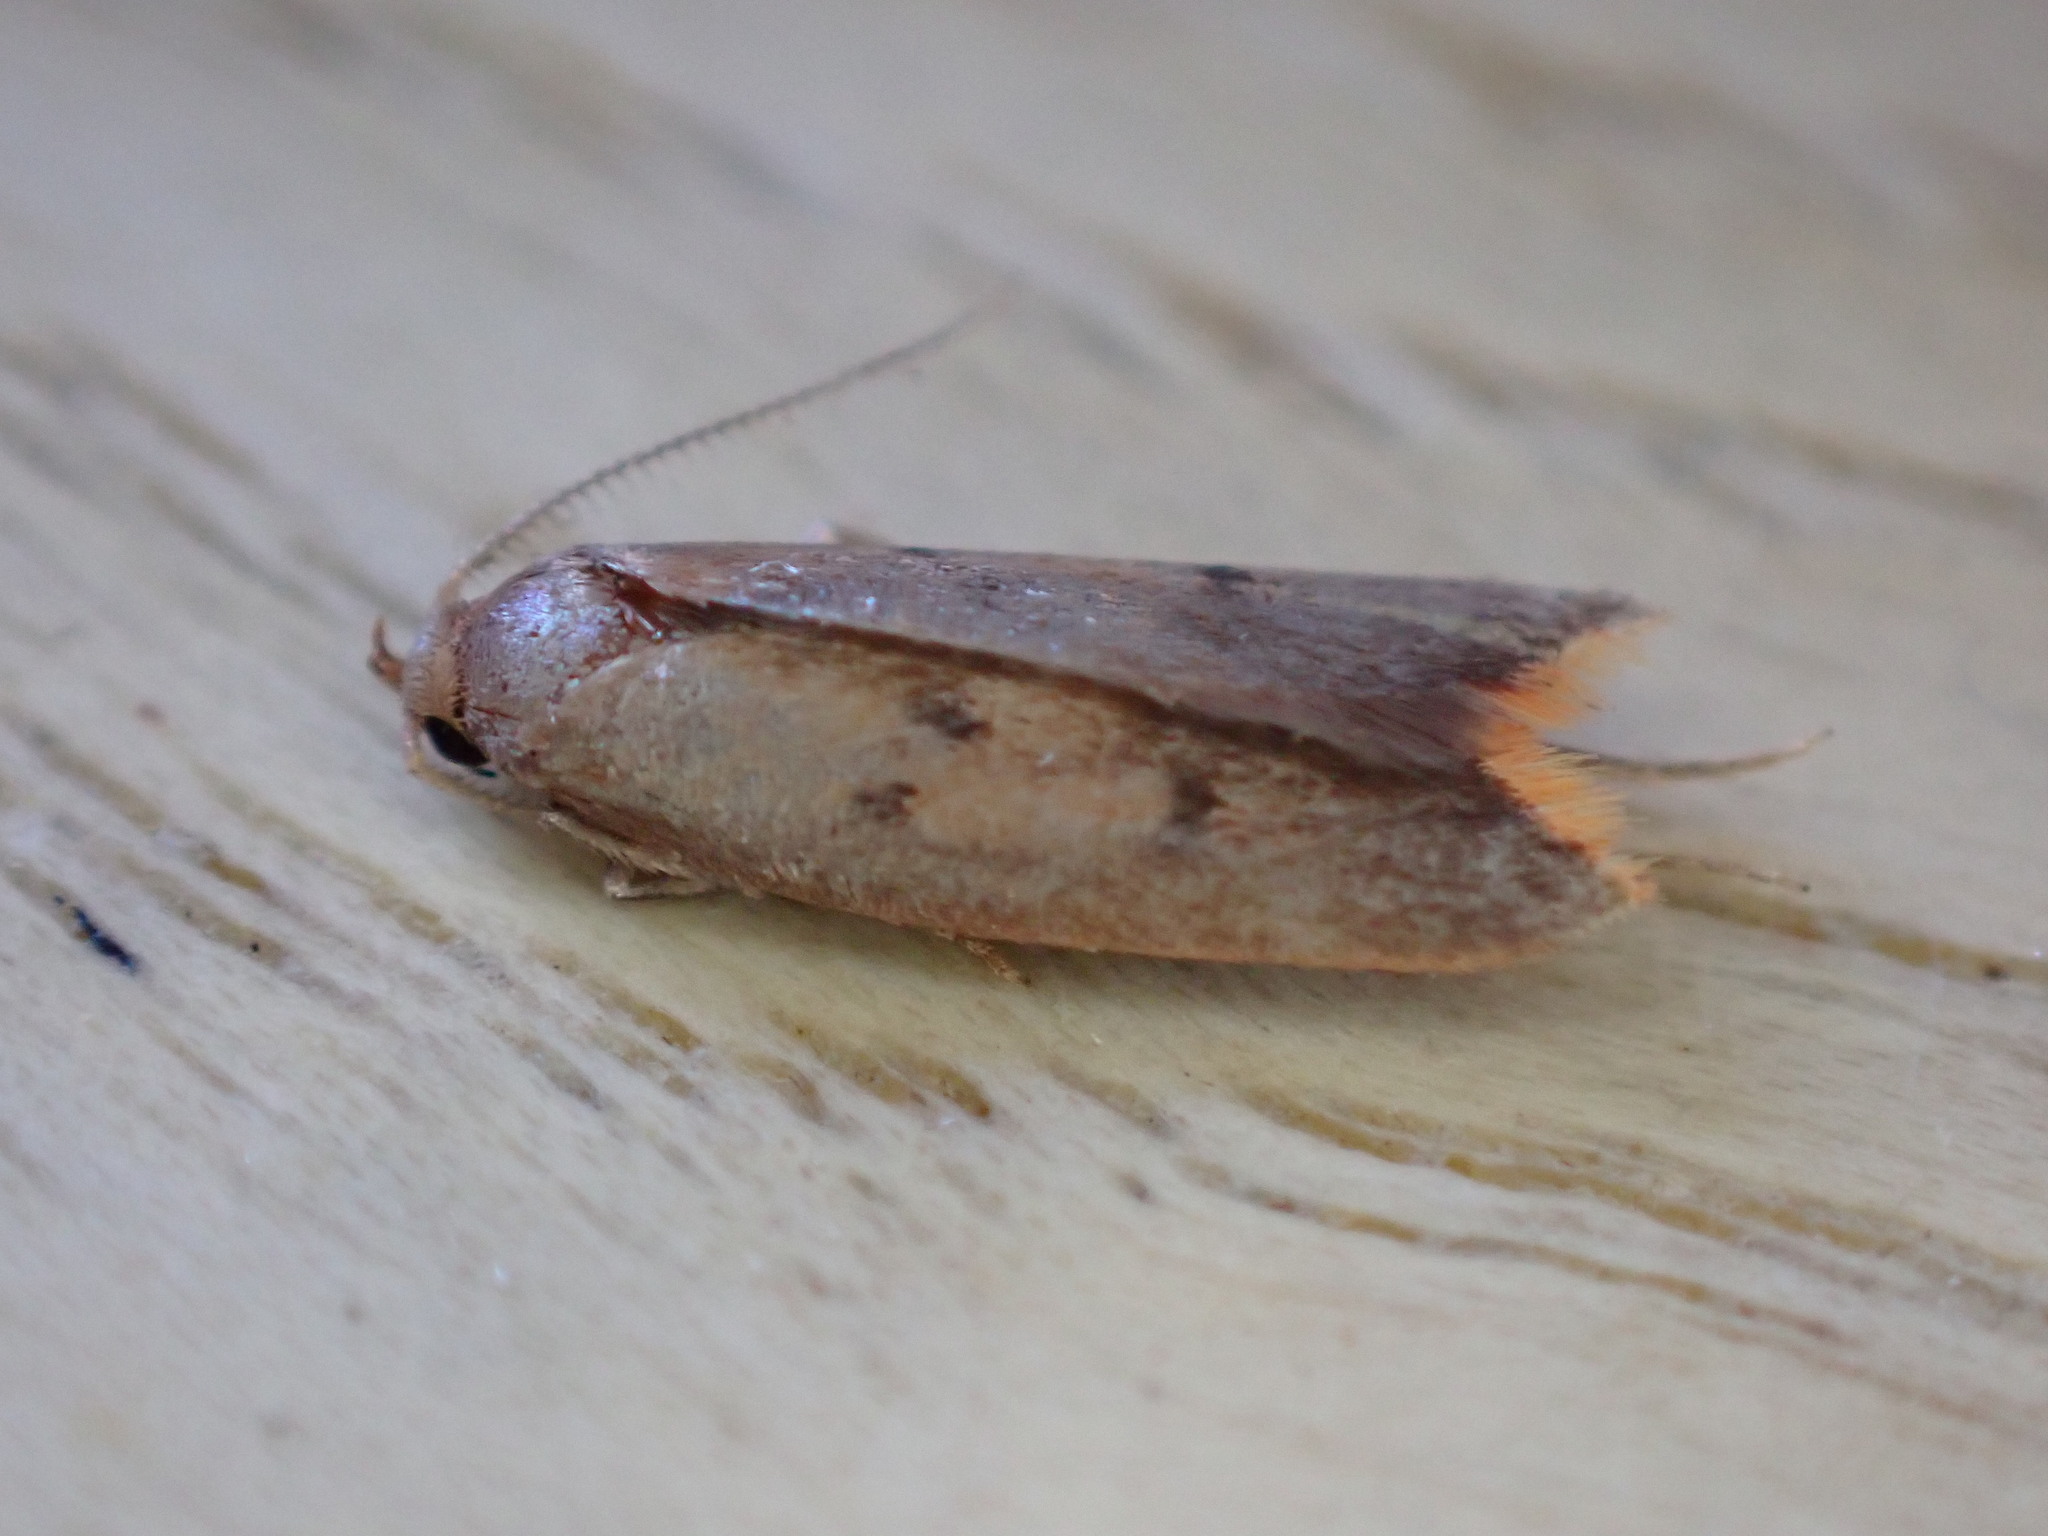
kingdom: Animalia
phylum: Arthropoda
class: Insecta
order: Lepidoptera
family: Oecophoridae
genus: Tachystola
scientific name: Tachystola acroxantha
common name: Ruddy streak
